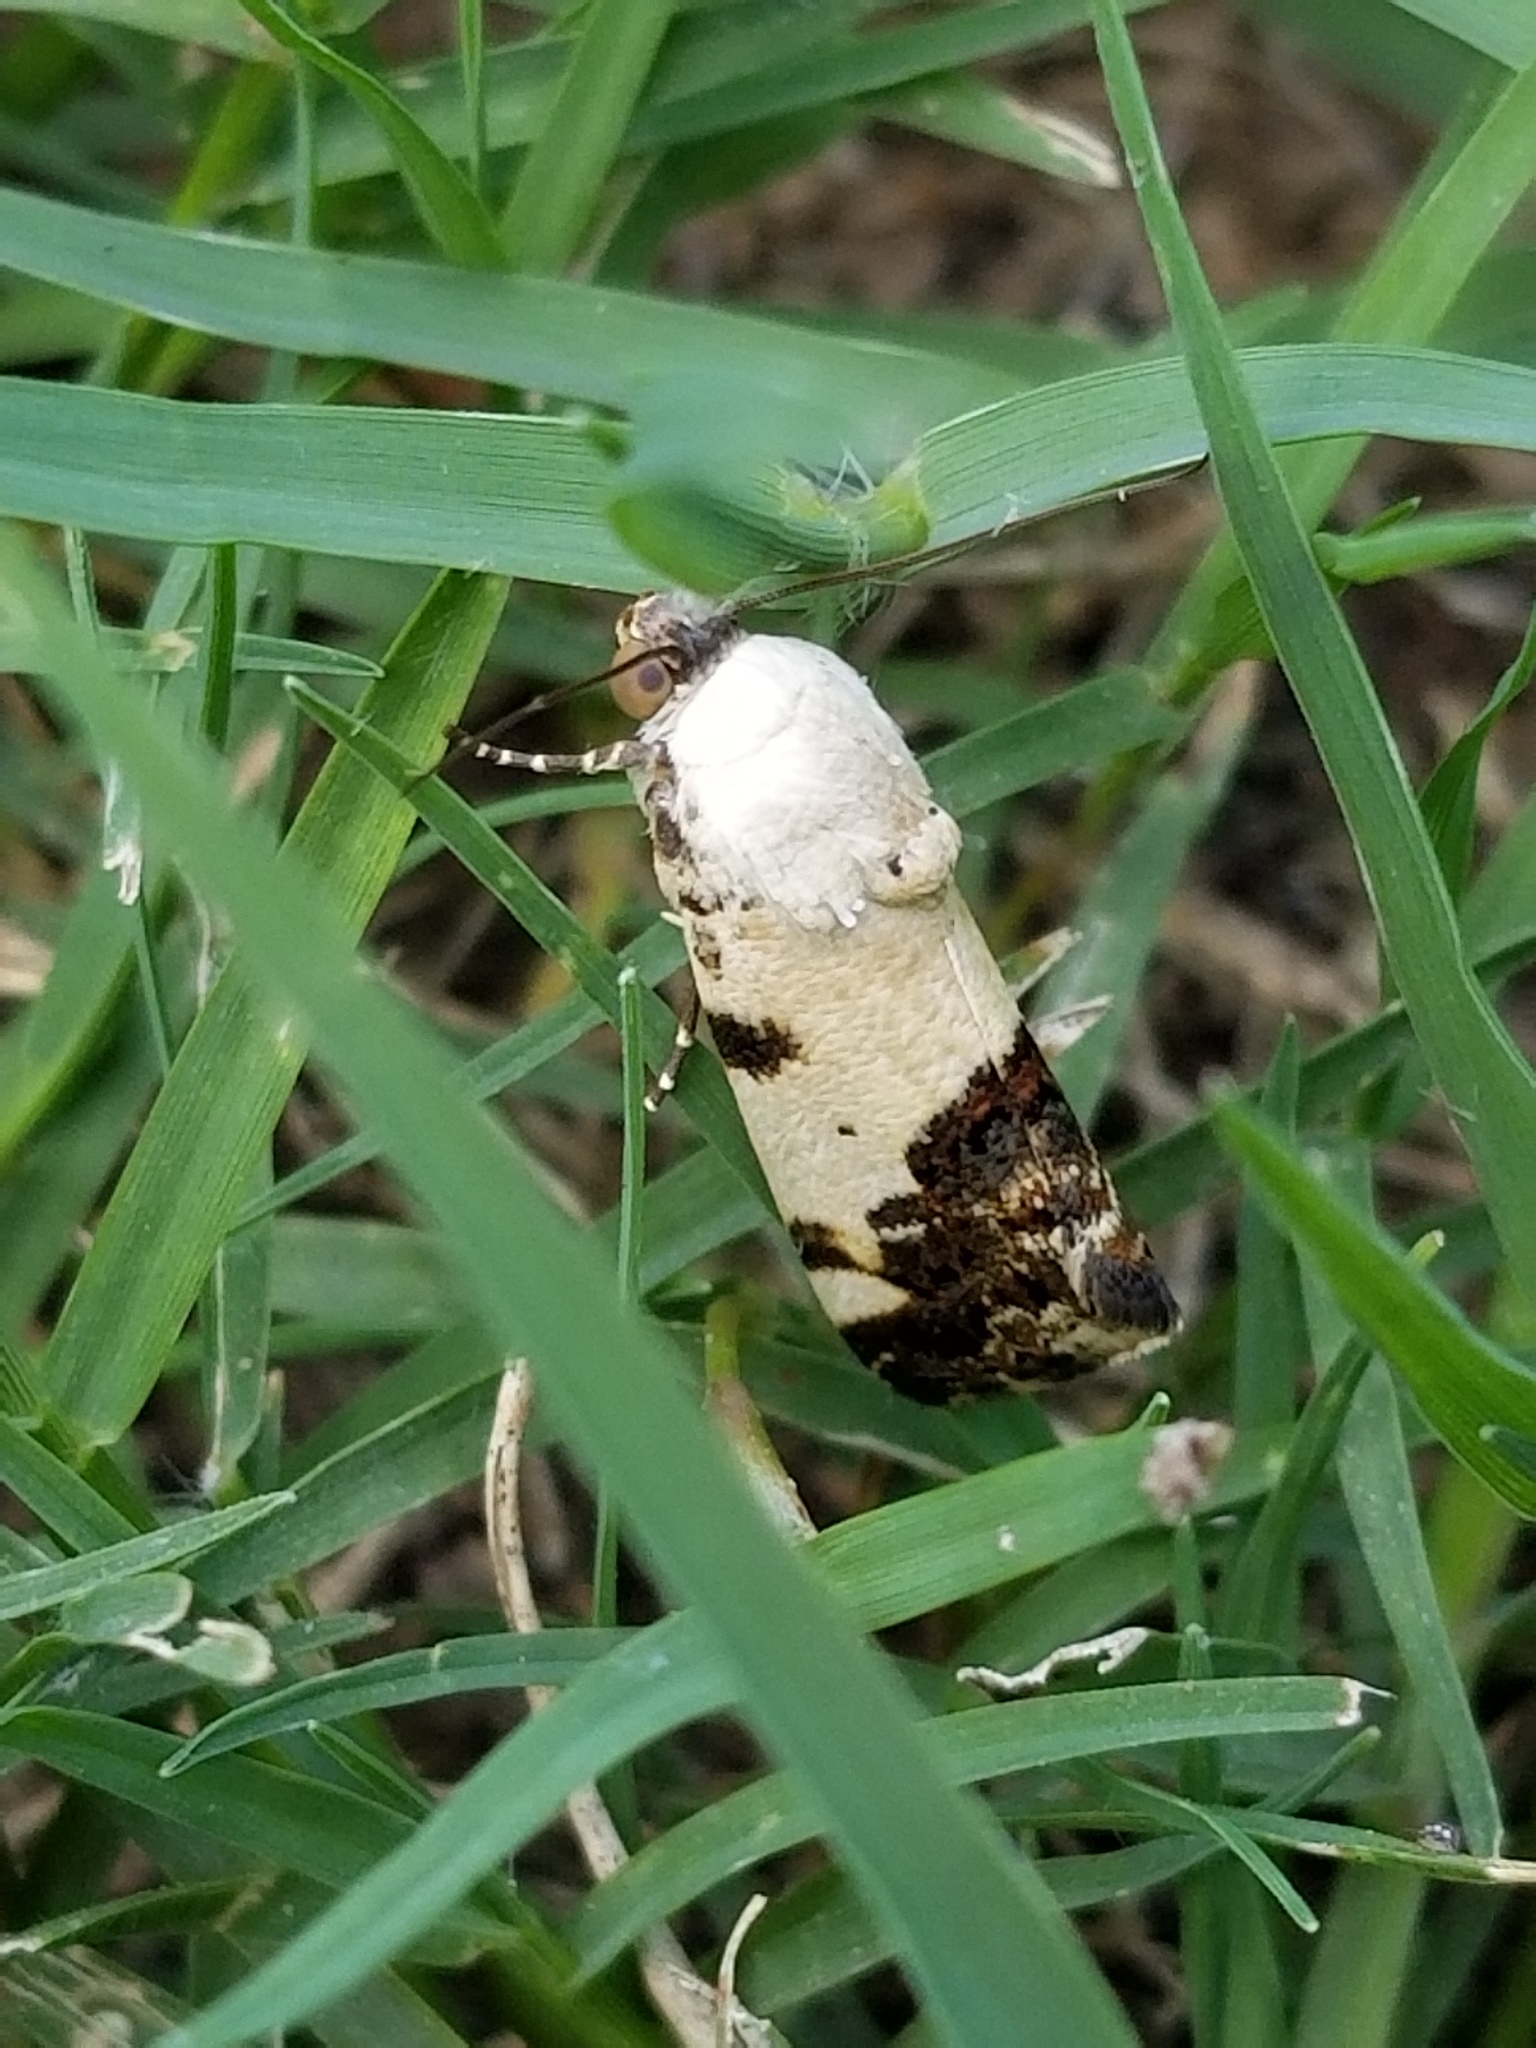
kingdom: Animalia
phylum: Arthropoda
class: Insecta
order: Lepidoptera
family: Noctuidae
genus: Acontia
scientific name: Acontia Tarache tetragona
